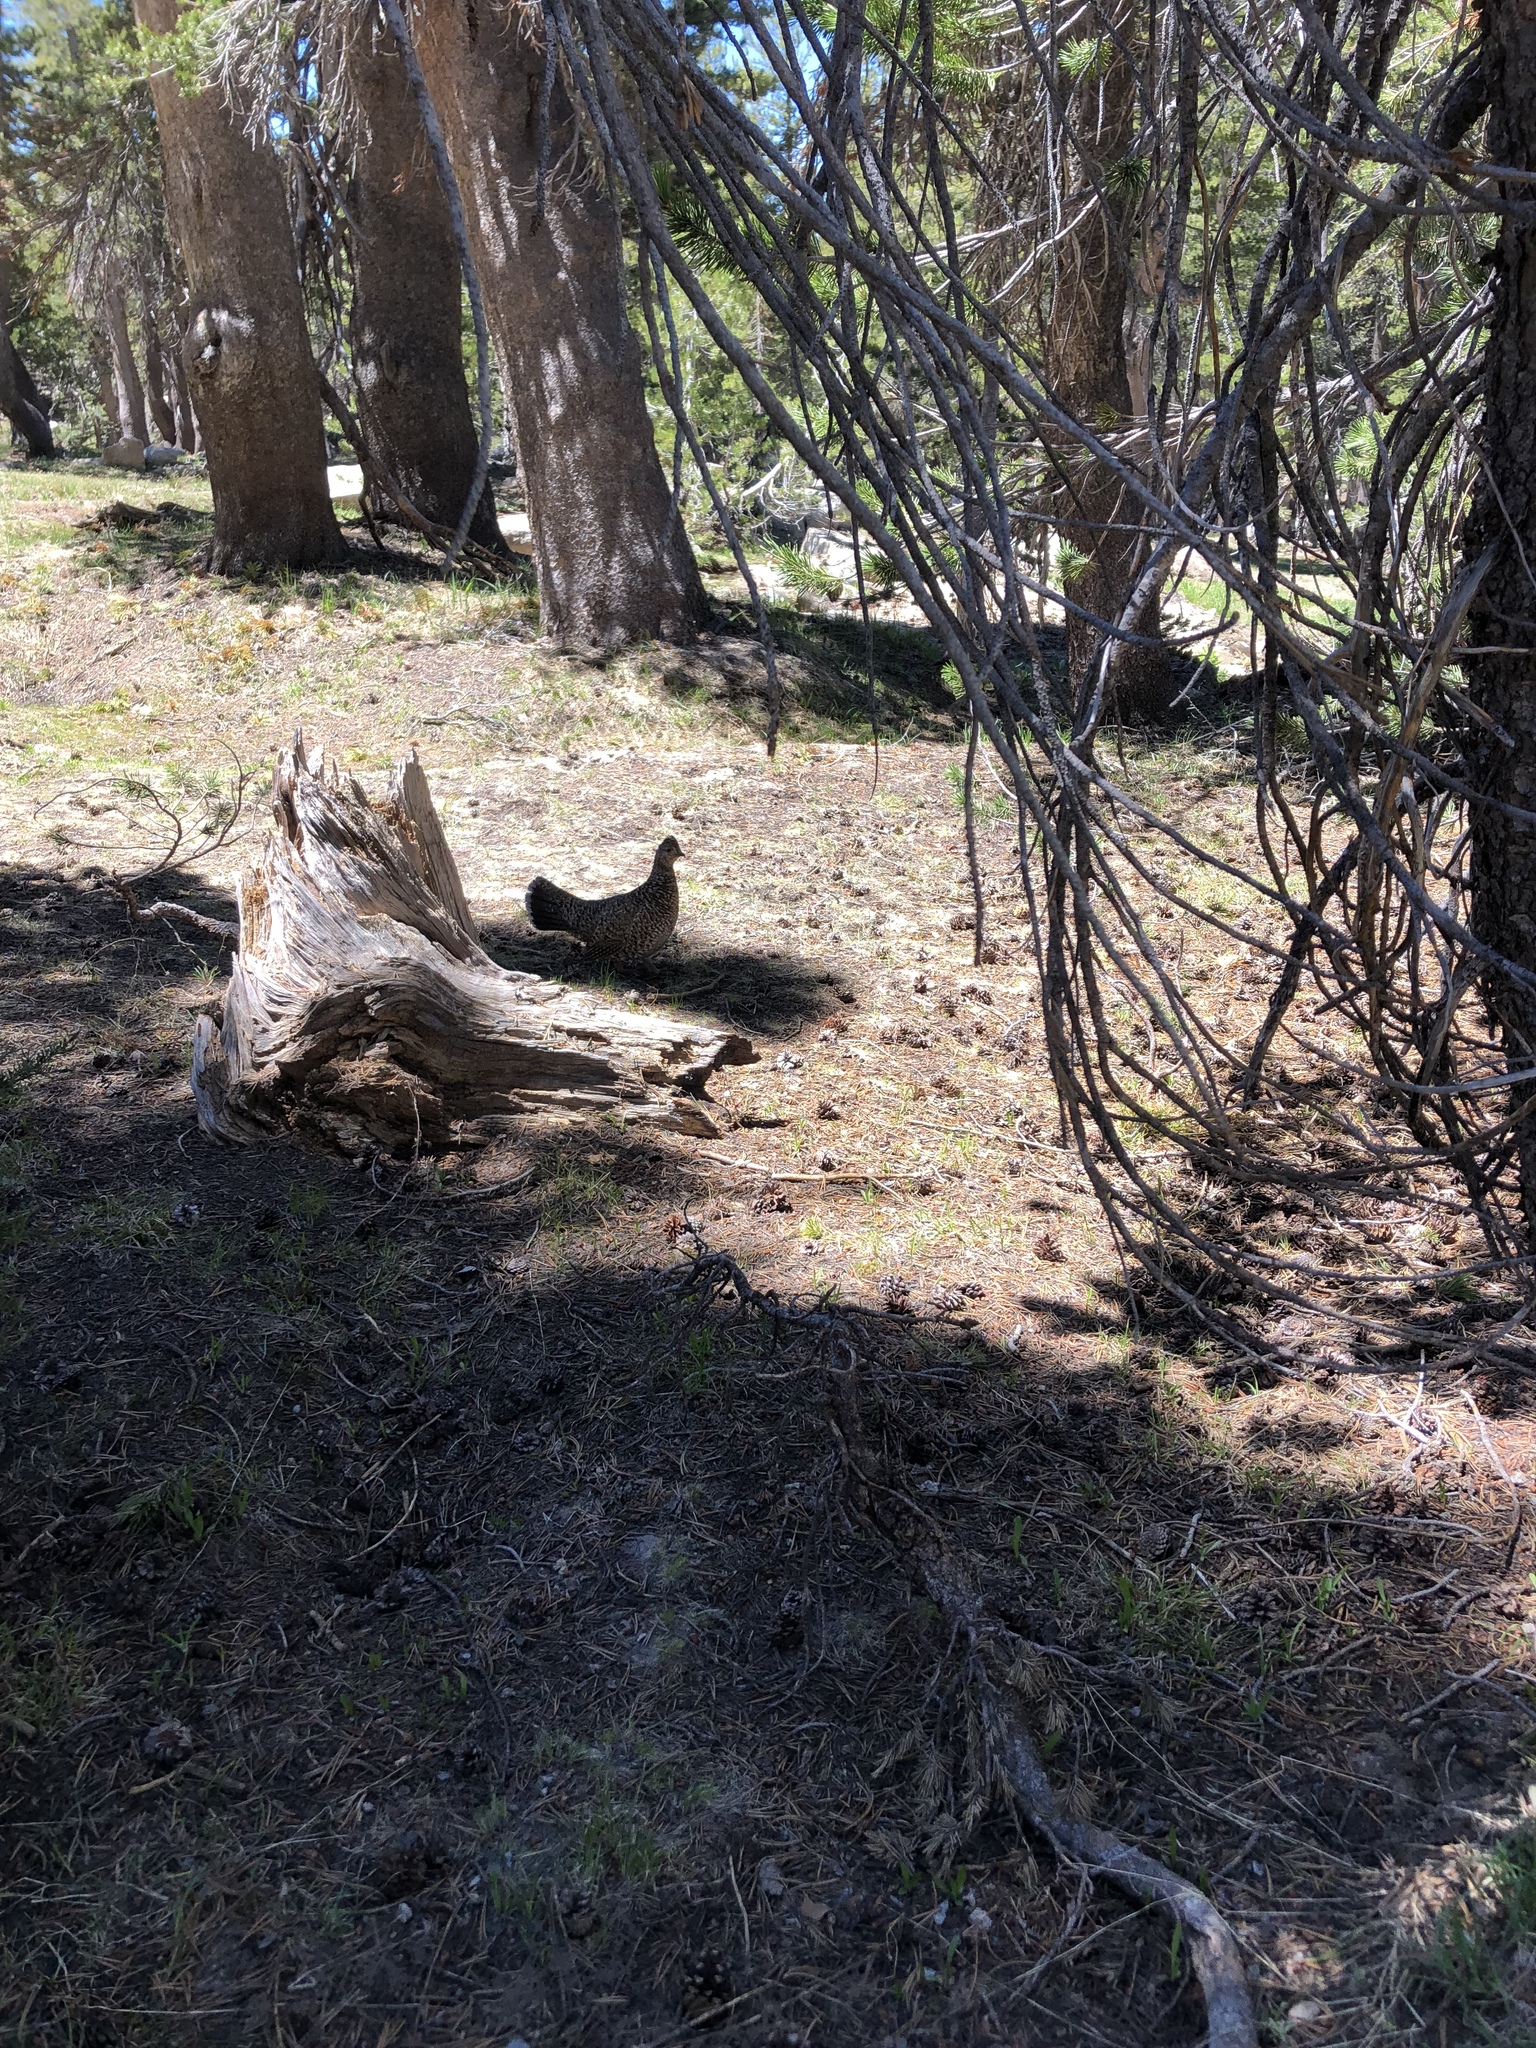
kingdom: Animalia
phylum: Chordata
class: Aves
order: Galliformes
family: Phasianidae
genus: Dendragapus
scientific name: Dendragapus fuliginosus
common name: Sooty grouse
